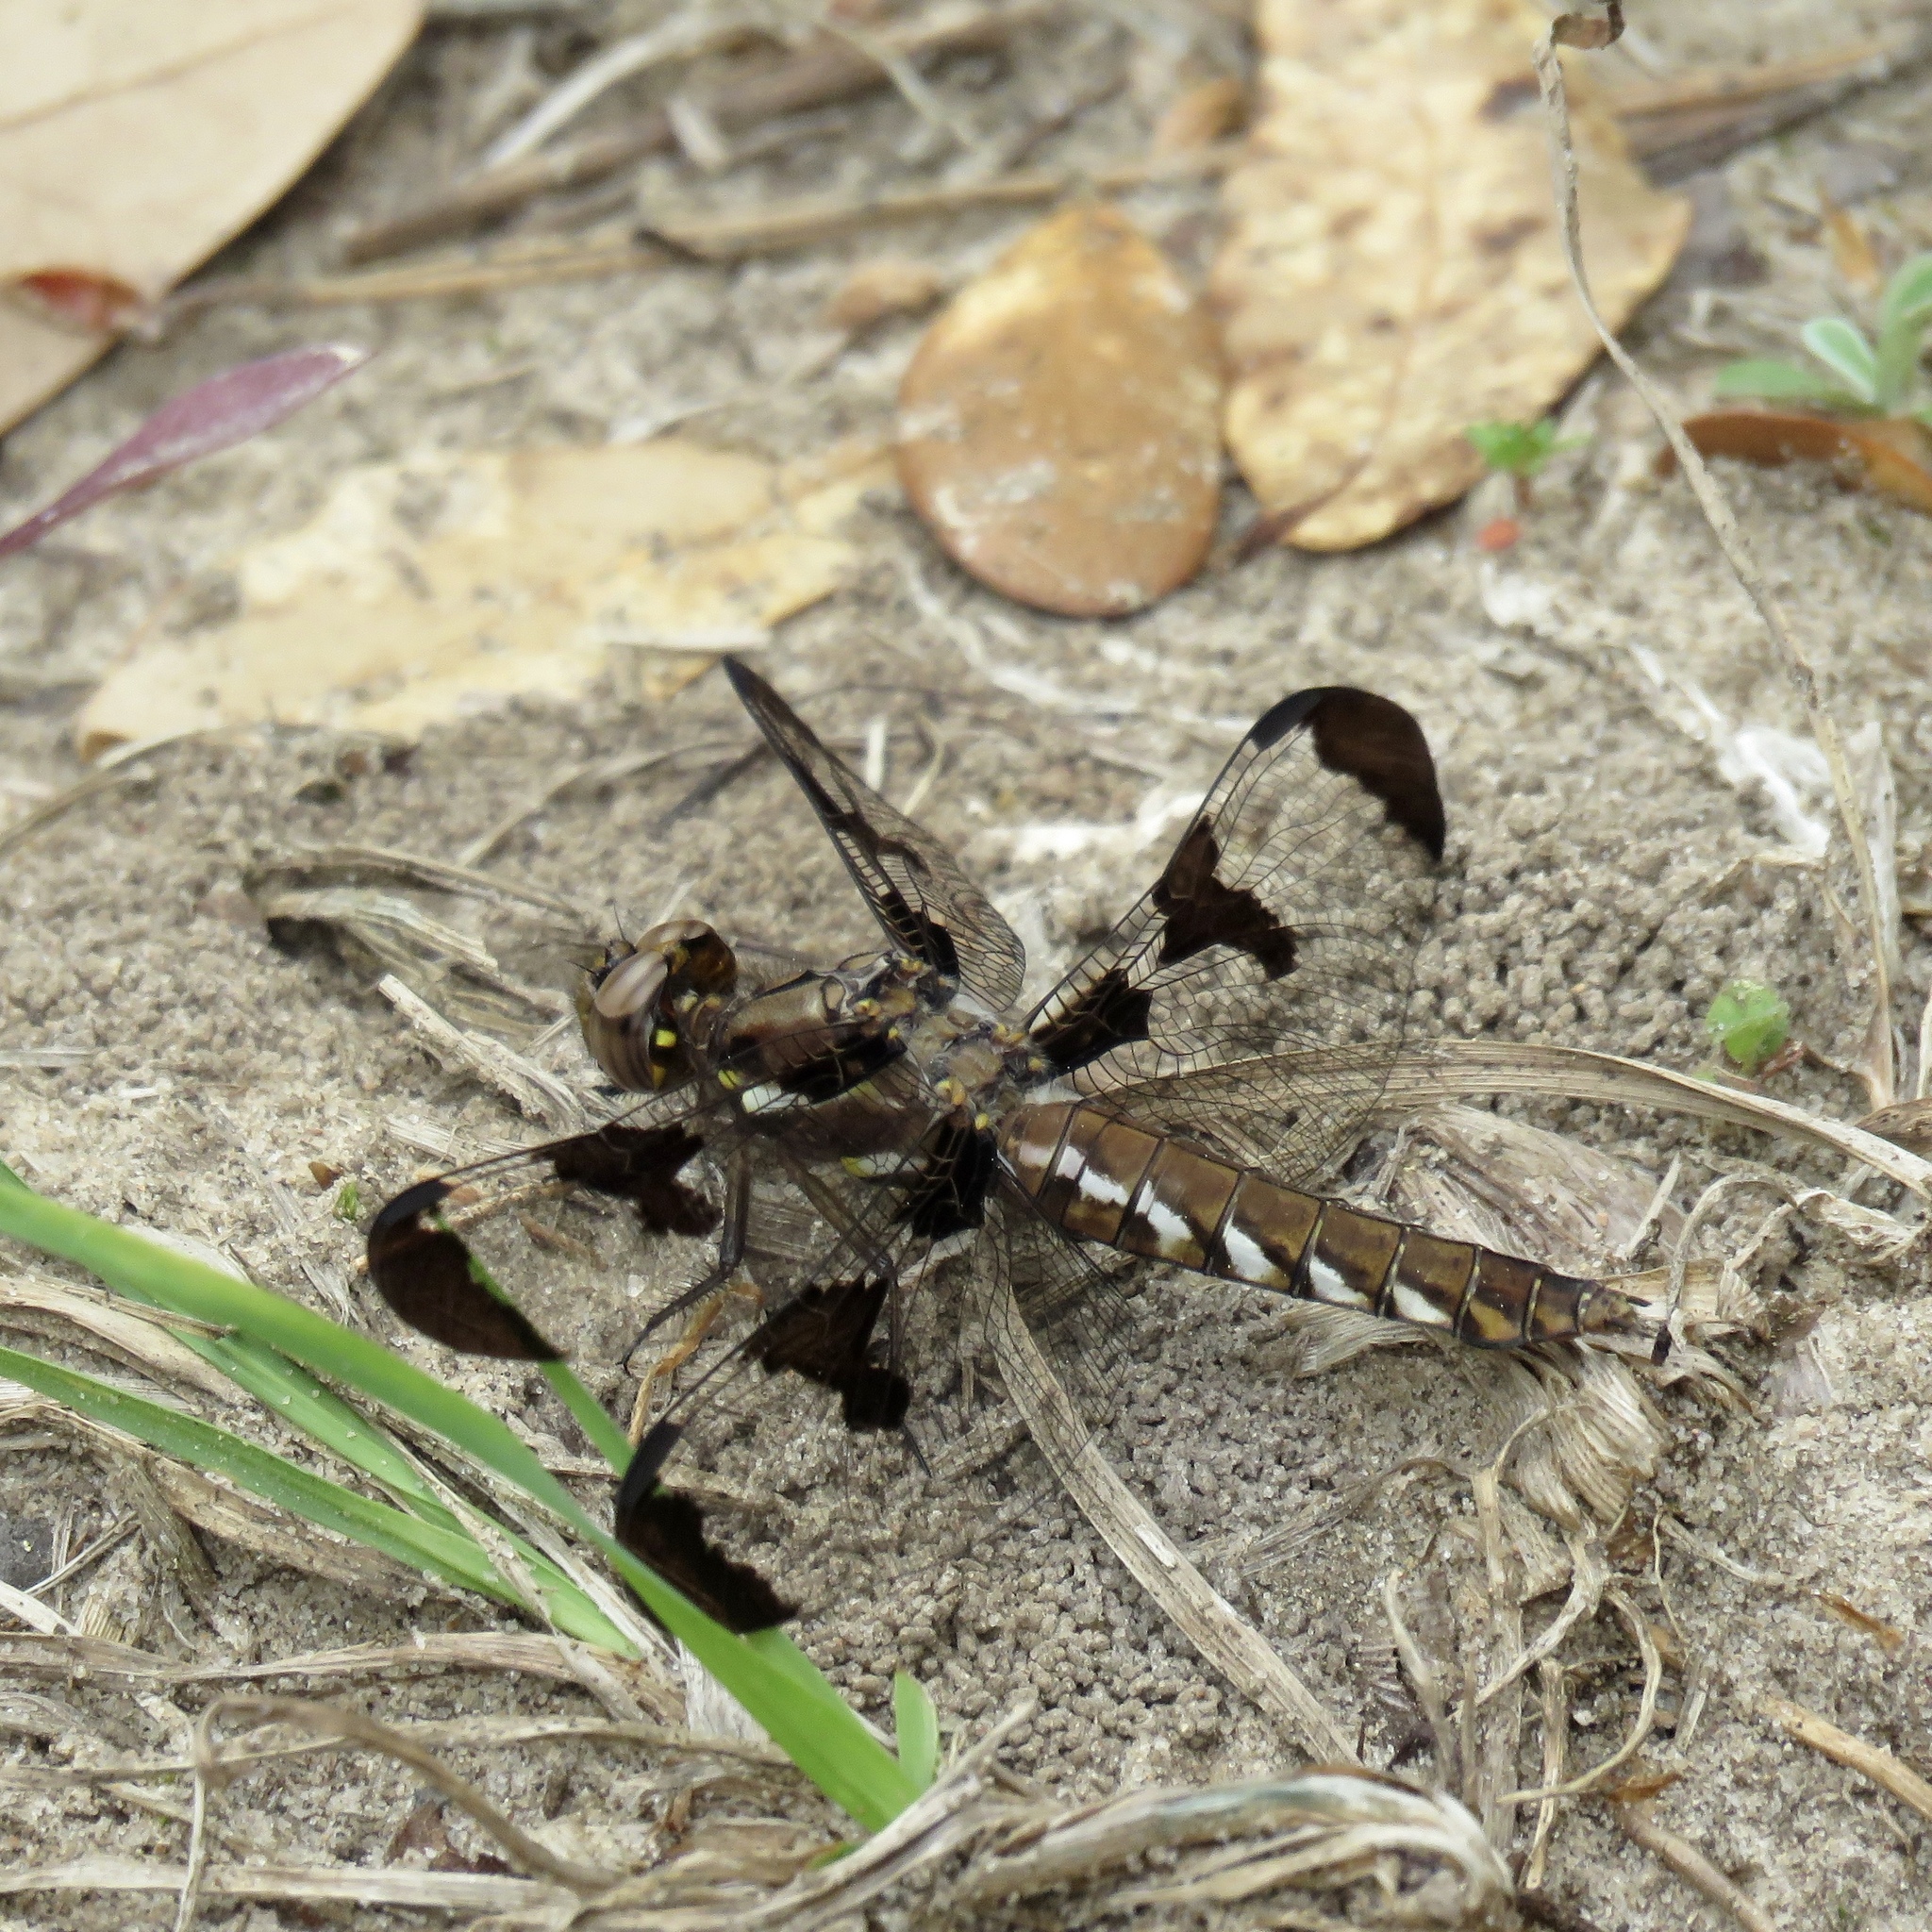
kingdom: Animalia
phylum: Arthropoda
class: Insecta
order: Odonata
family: Libellulidae
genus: Plathemis
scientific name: Plathemis lydia
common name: Common whitetail
